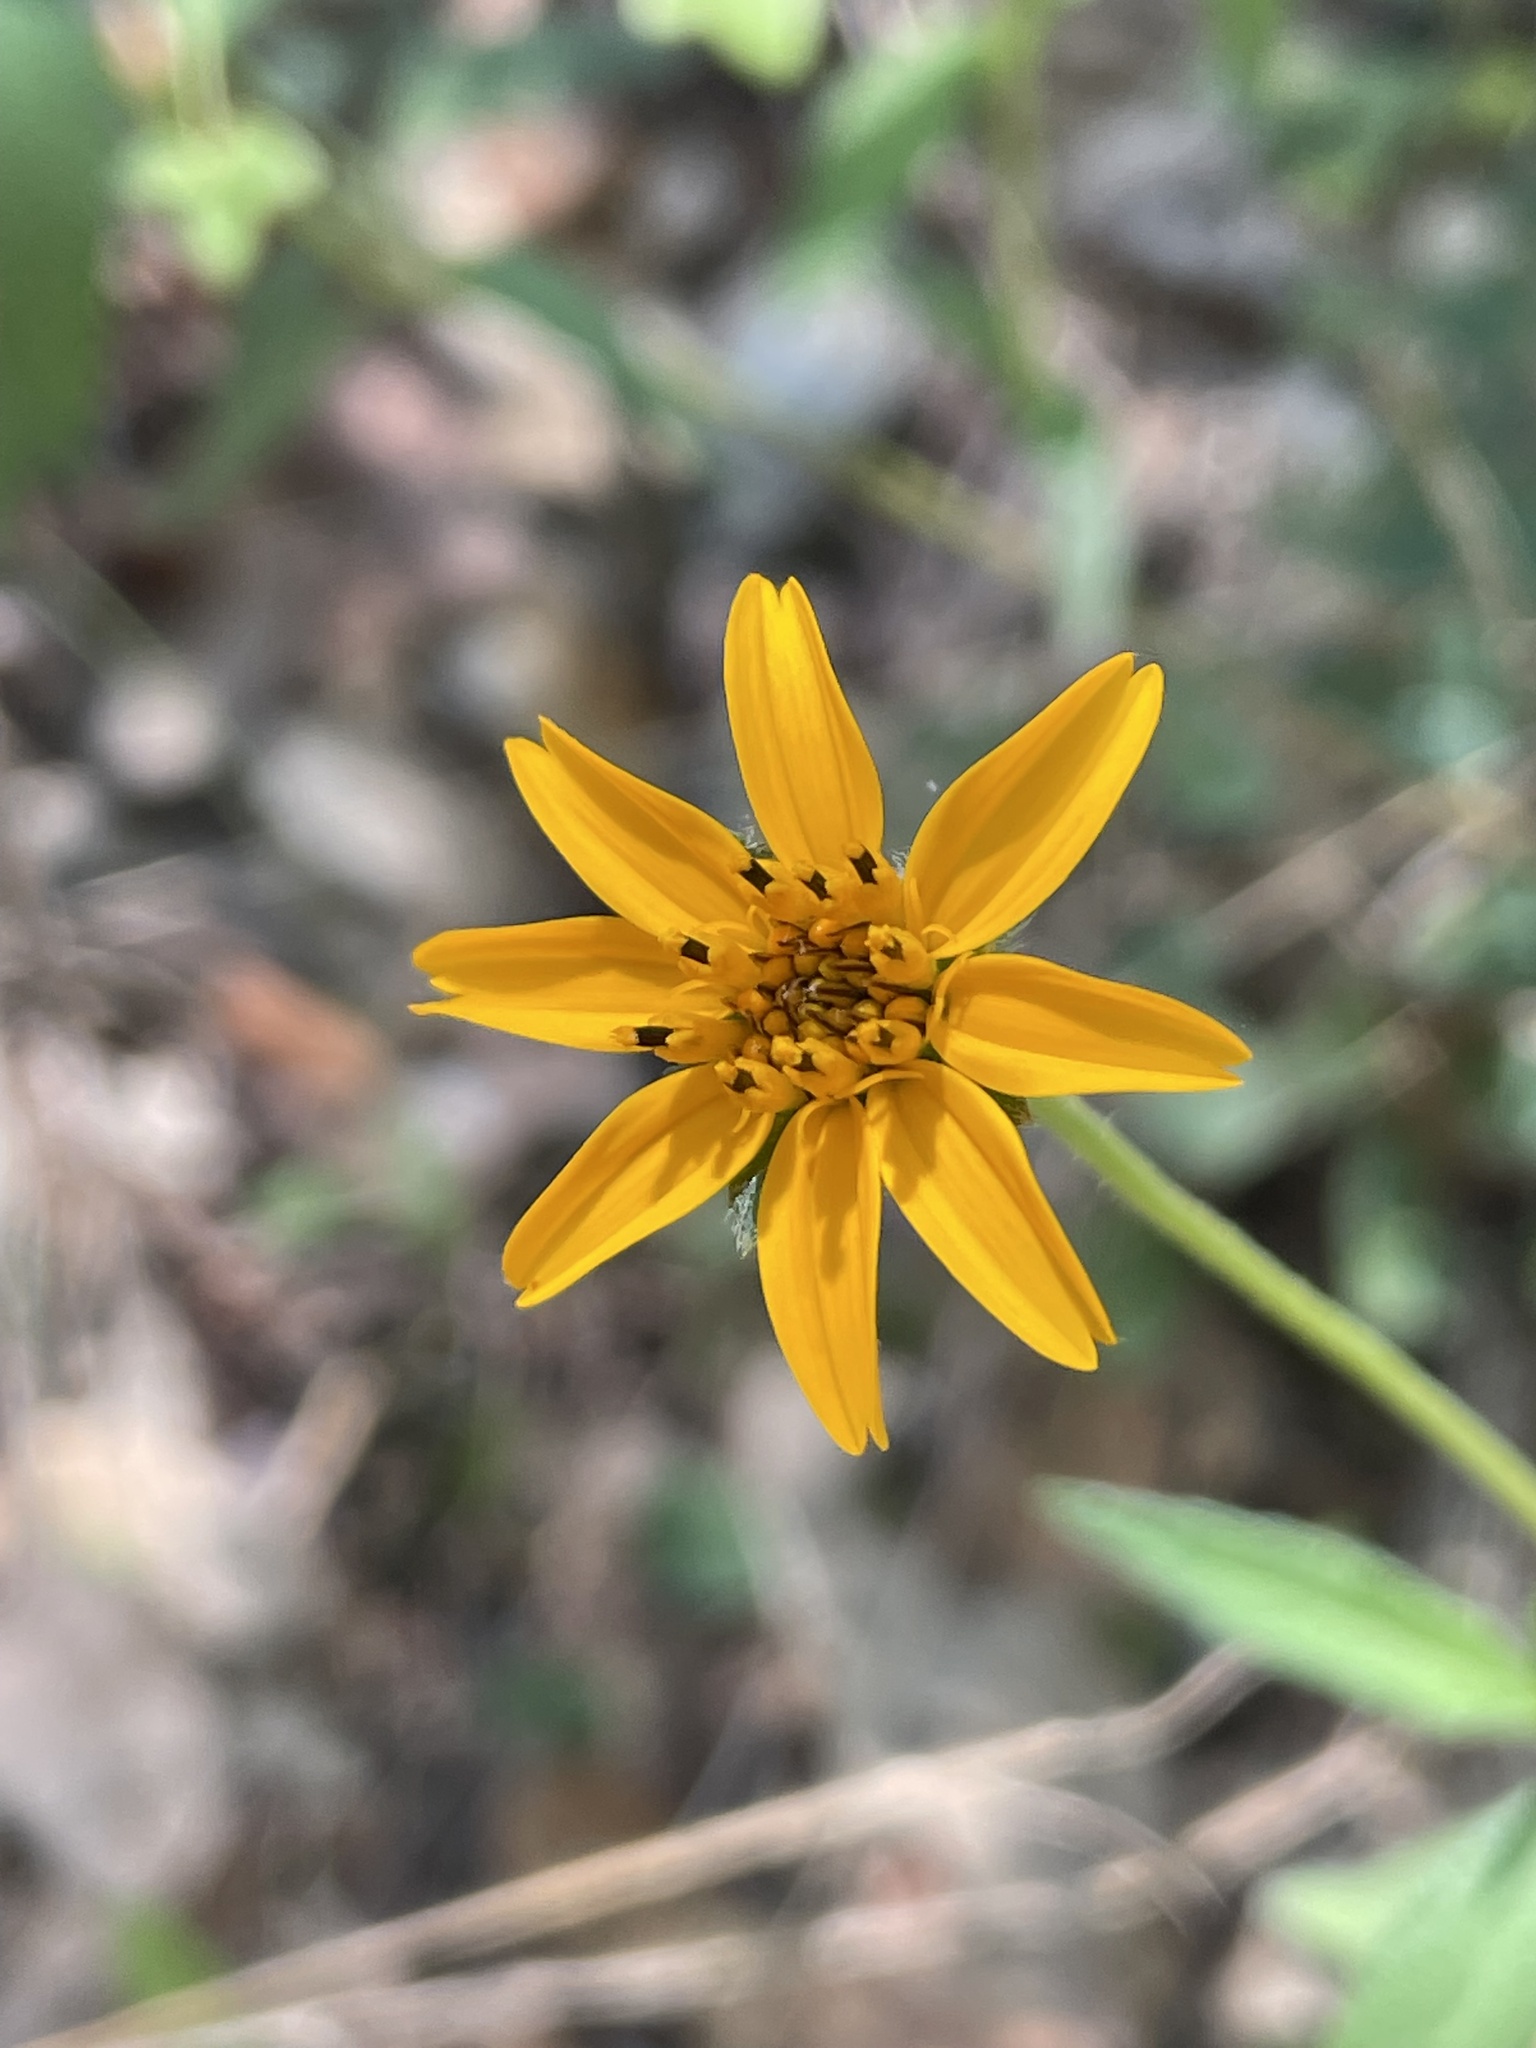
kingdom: Plantae
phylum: Tracheophyta
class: Magnoliopsida
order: Asterales
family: Asteraceae
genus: Wedelia
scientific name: Wedelia acapulcensis
